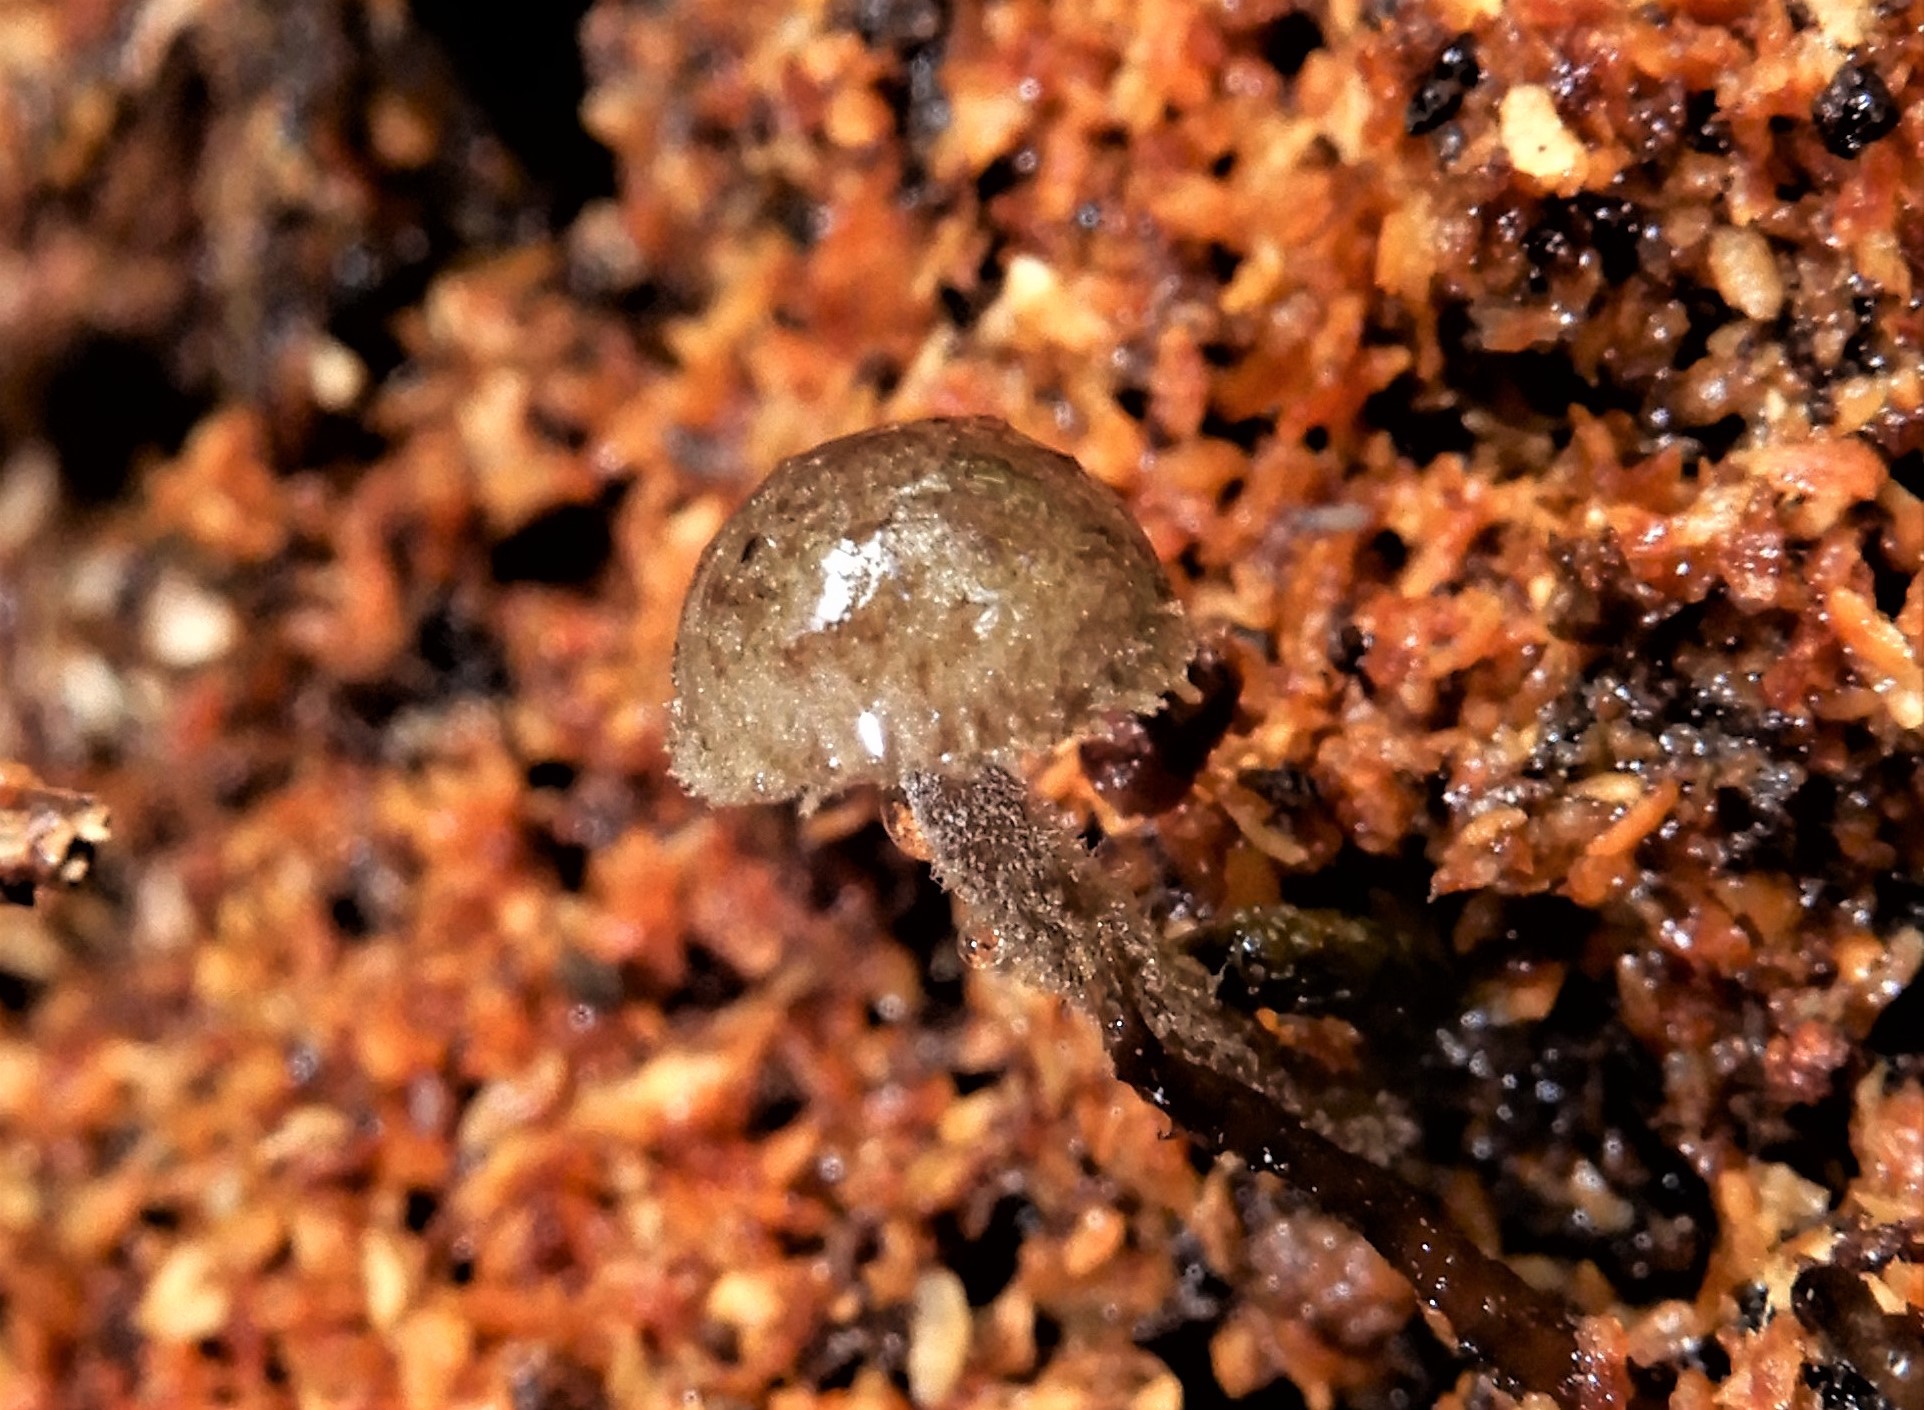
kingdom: Fungi
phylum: Basidiomycota
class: Agaricomycetes
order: Agaricales
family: Tubariaceae
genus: Flammulaster
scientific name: Flammulaster pulveraceus
